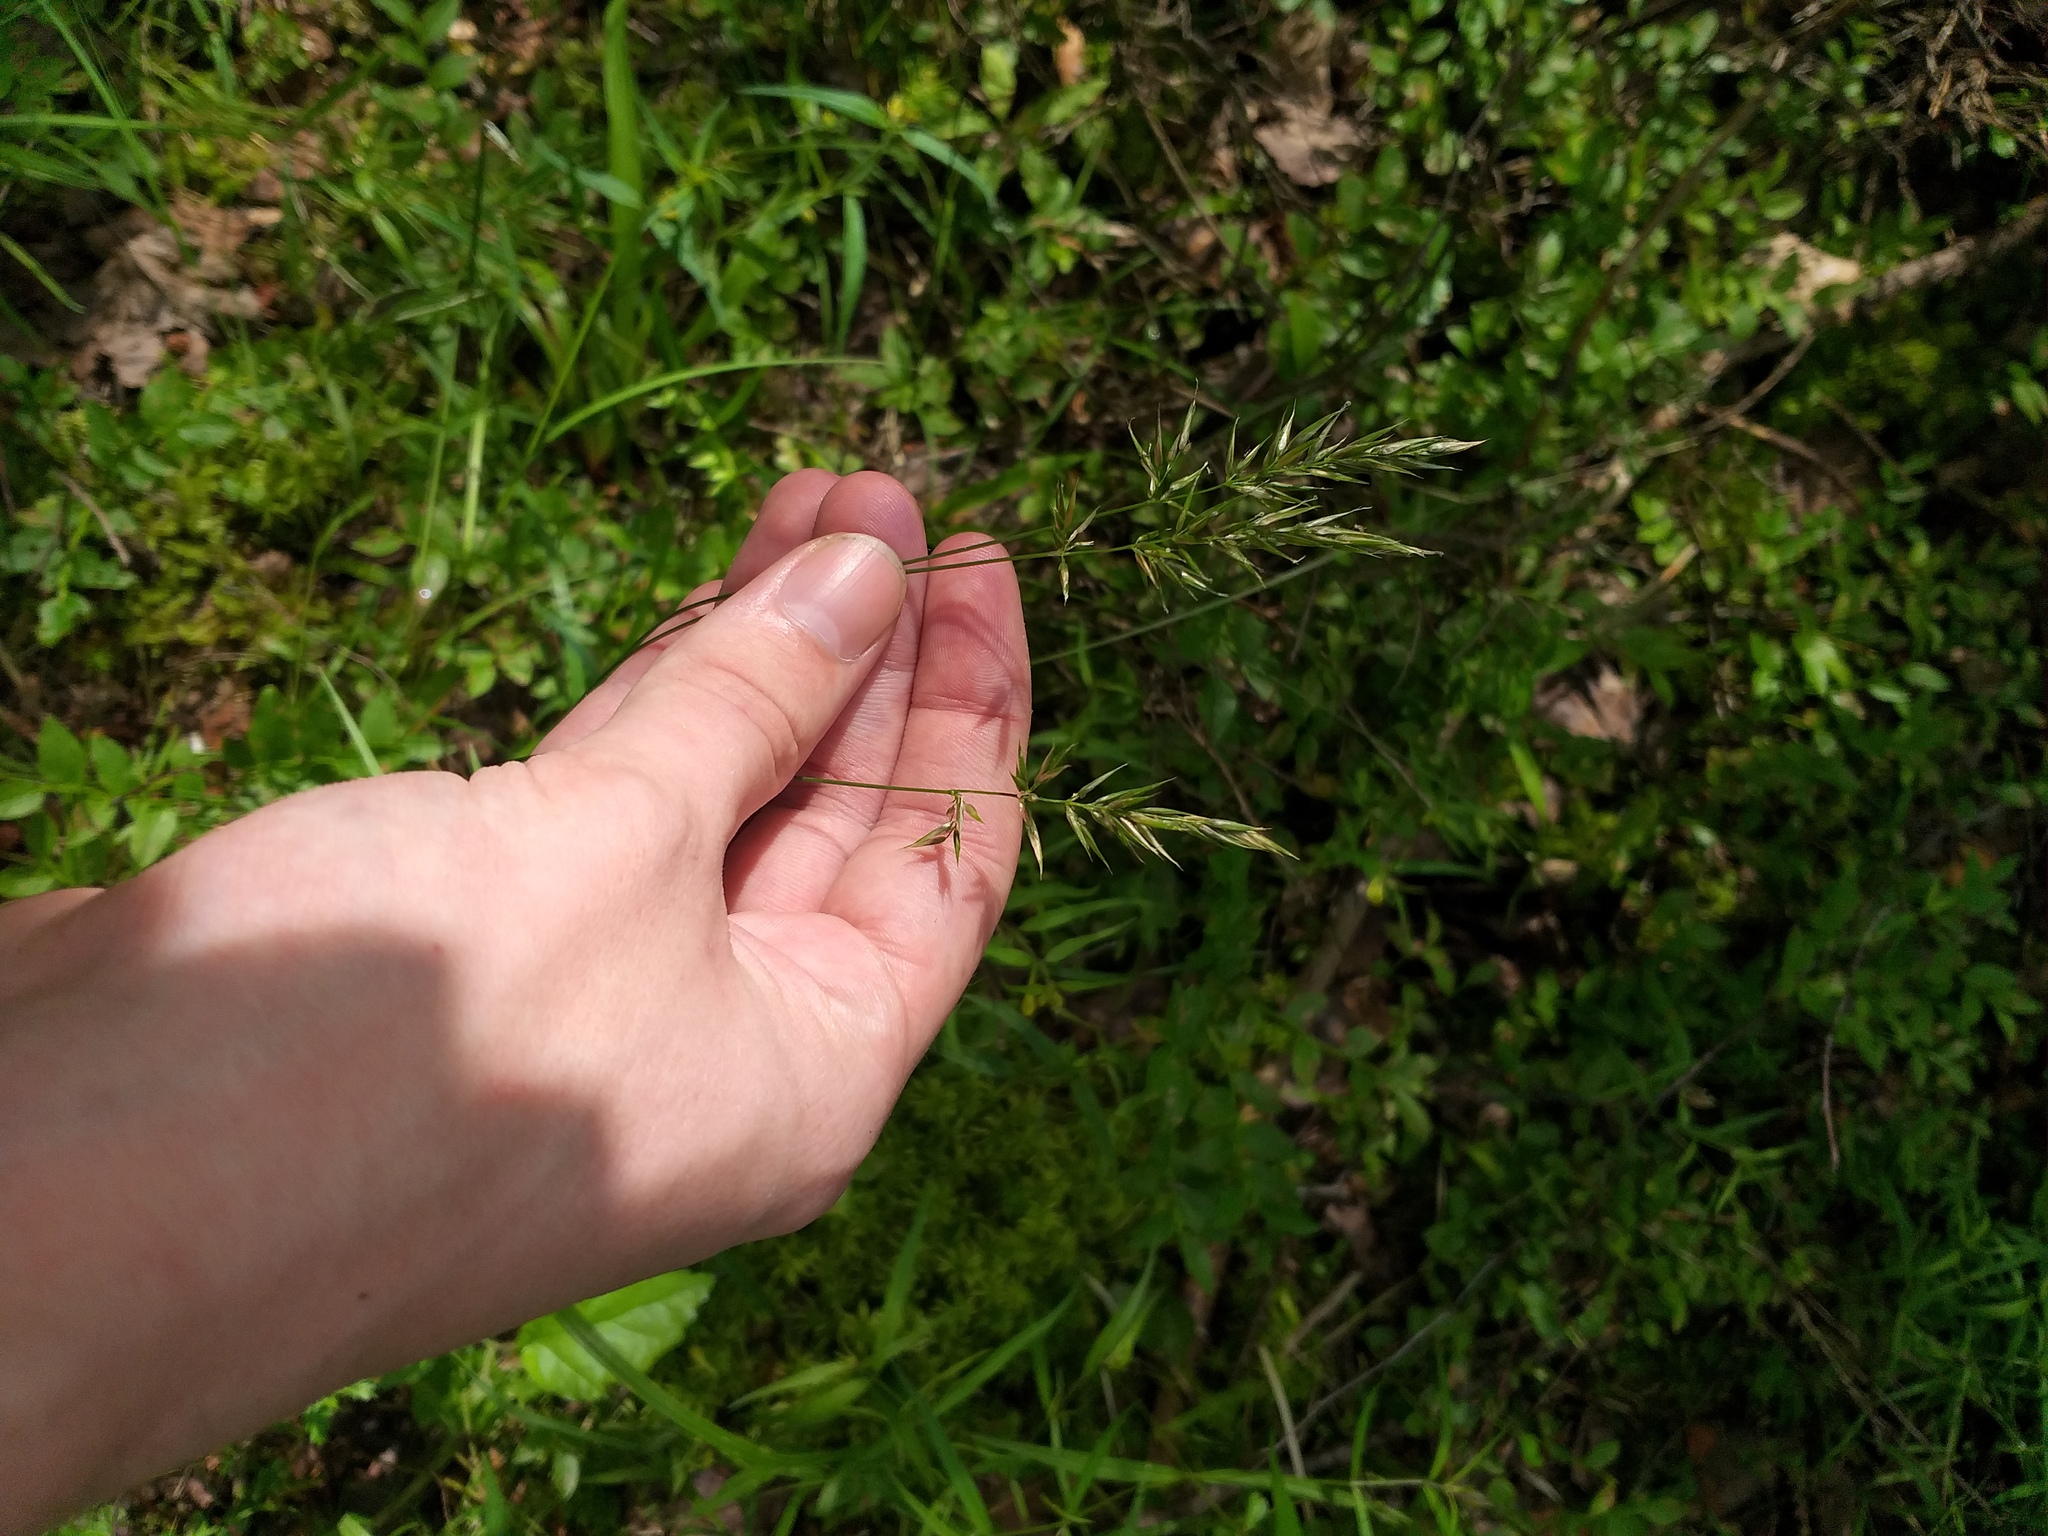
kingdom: Plantae
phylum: Tracheophyta
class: Liliopsida
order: Poales
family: Poaceae
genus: Anthoxanthum
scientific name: Anthoxanthum odoratum
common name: Sweet vernalgrass
